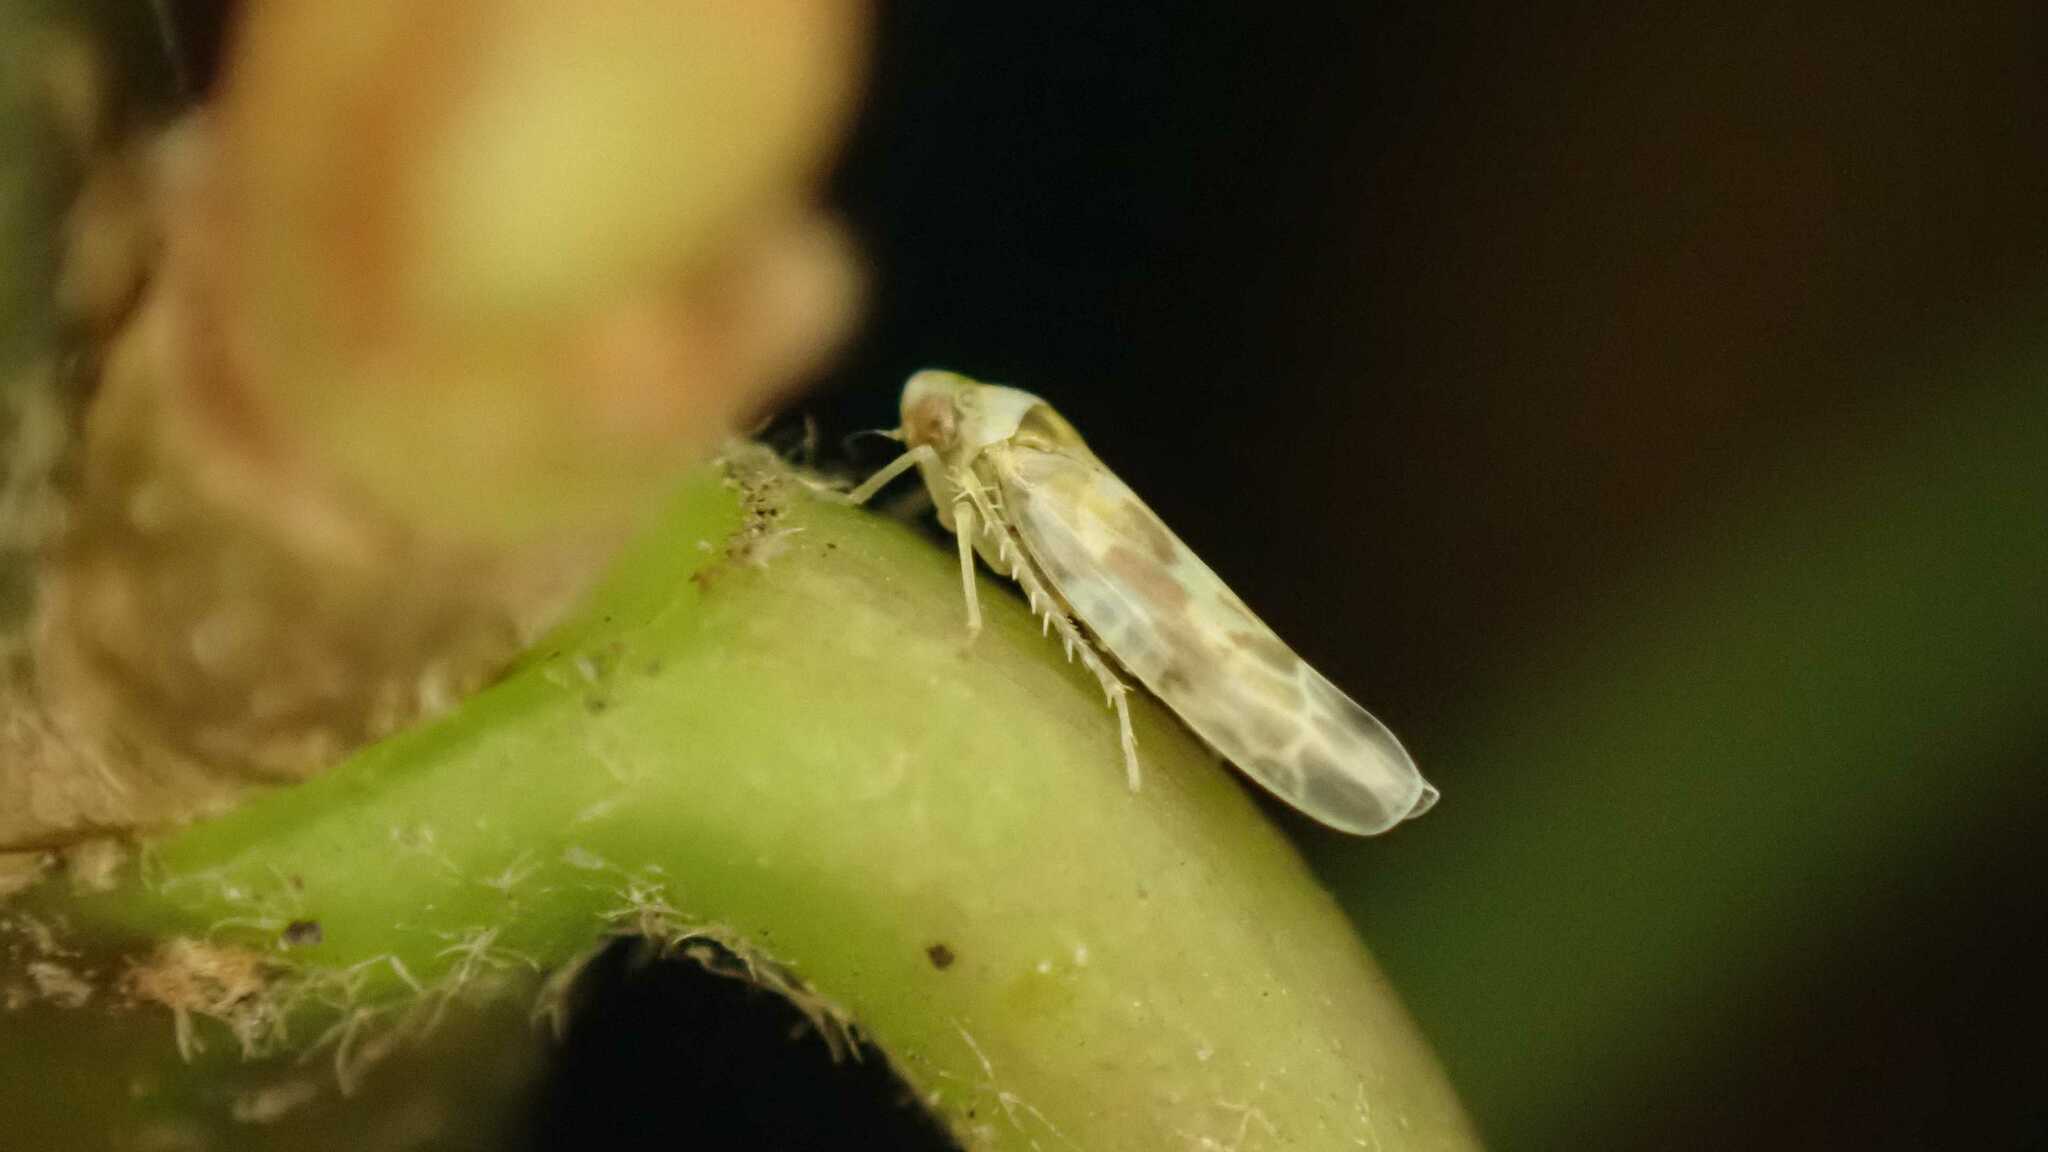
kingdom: Animalia
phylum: Arthropoda
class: Insecta
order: Hemiptera
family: Cicadellidae
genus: Tautoneura
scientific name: Tautoneura polymitusa
